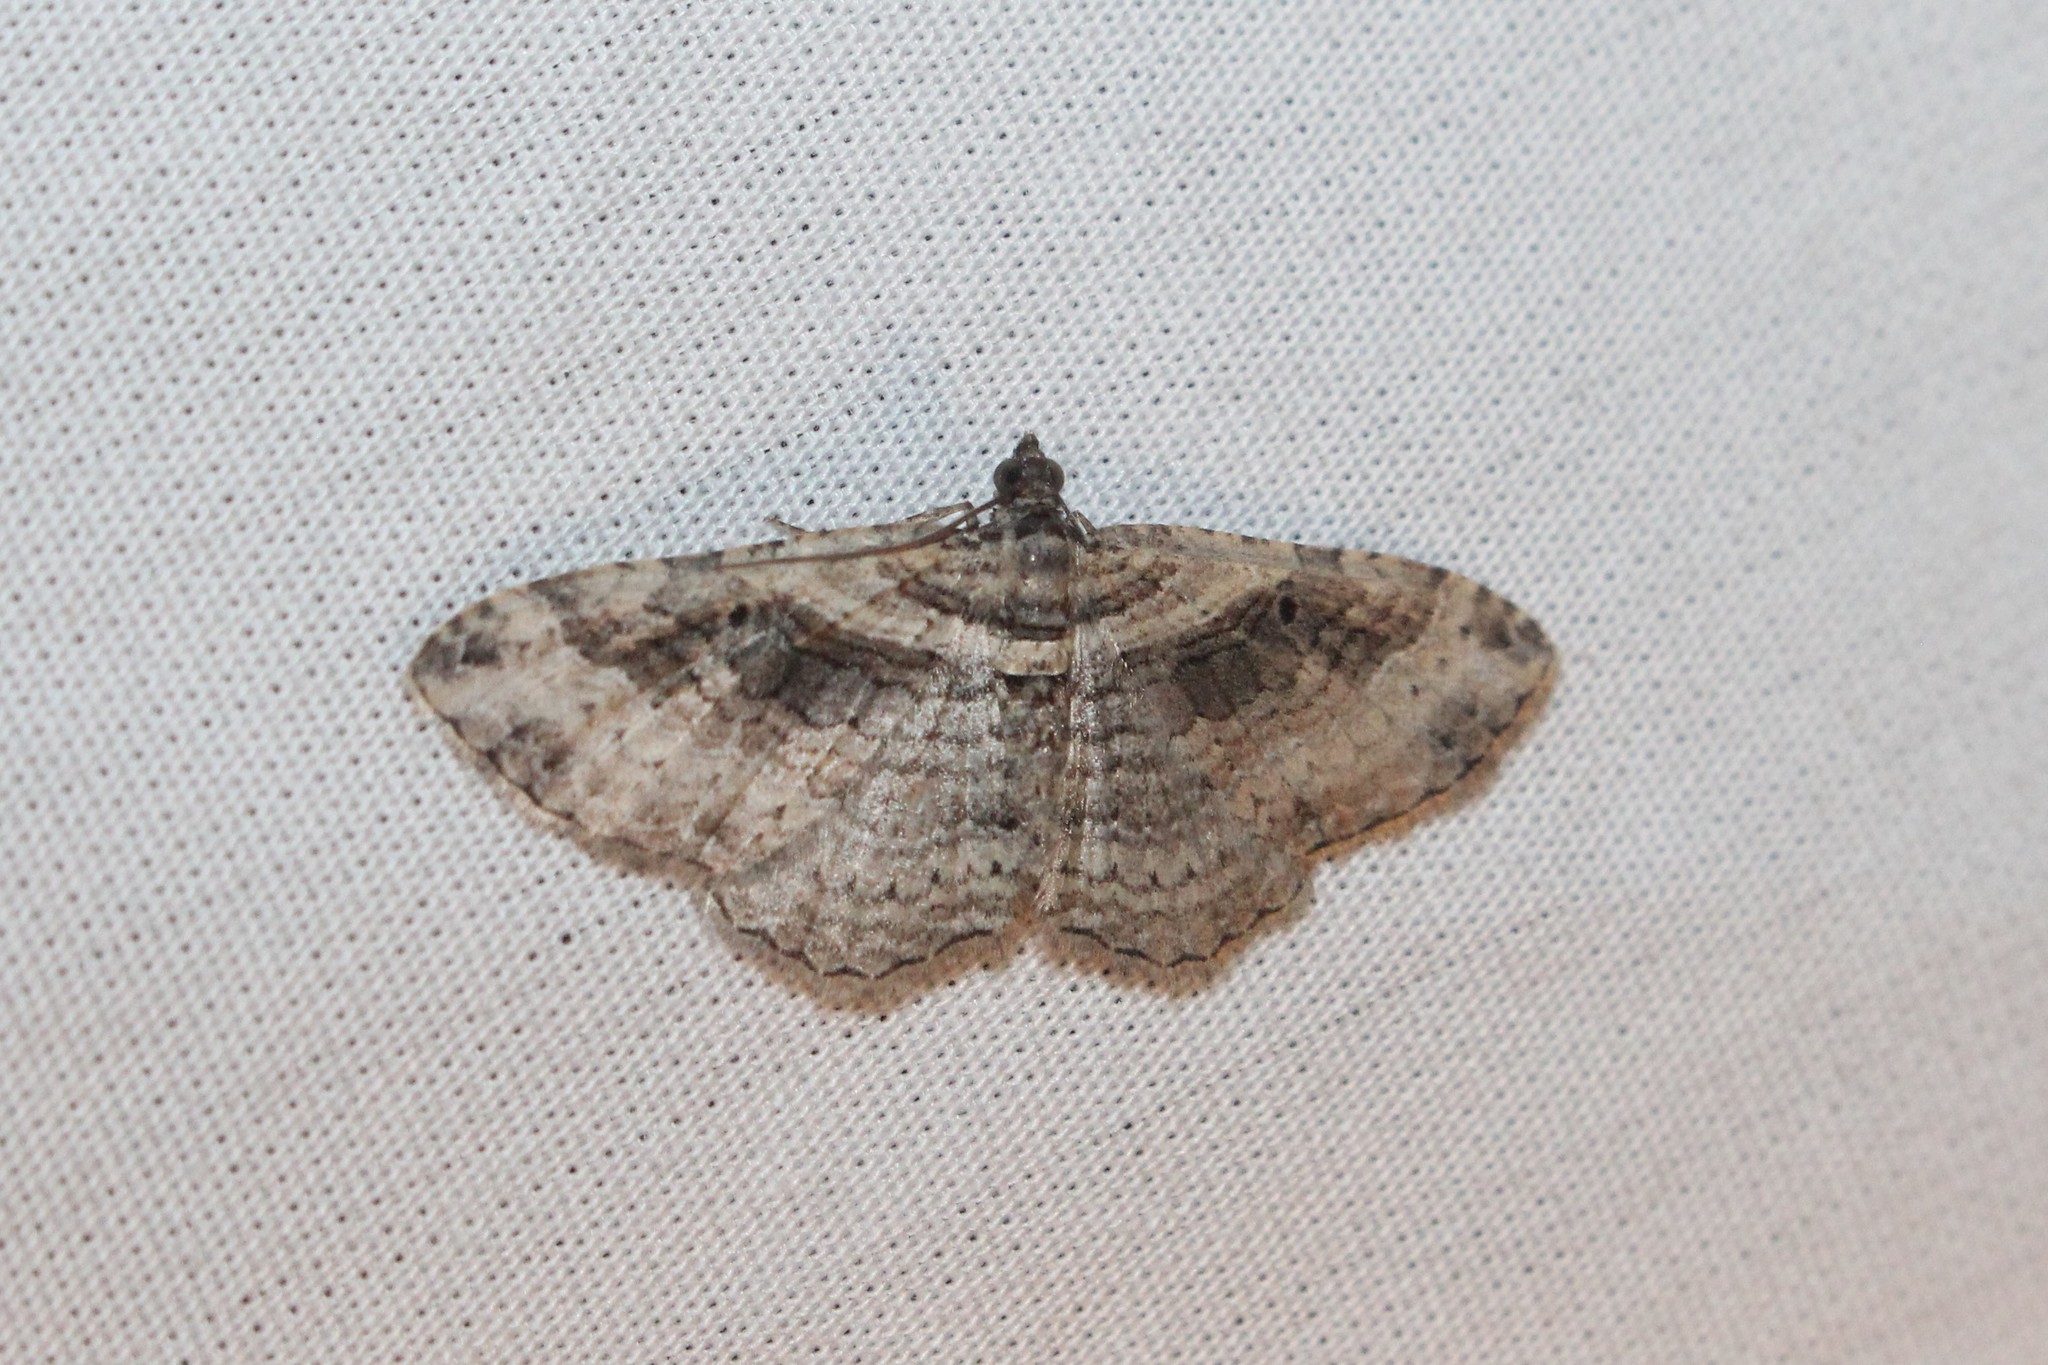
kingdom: Animalia
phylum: Arthropoda
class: Insecta
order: Lepidoptera
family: Geometridae
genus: Costaconvexa
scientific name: Costaconvexa centrostrigaria
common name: Bent-line carpet
